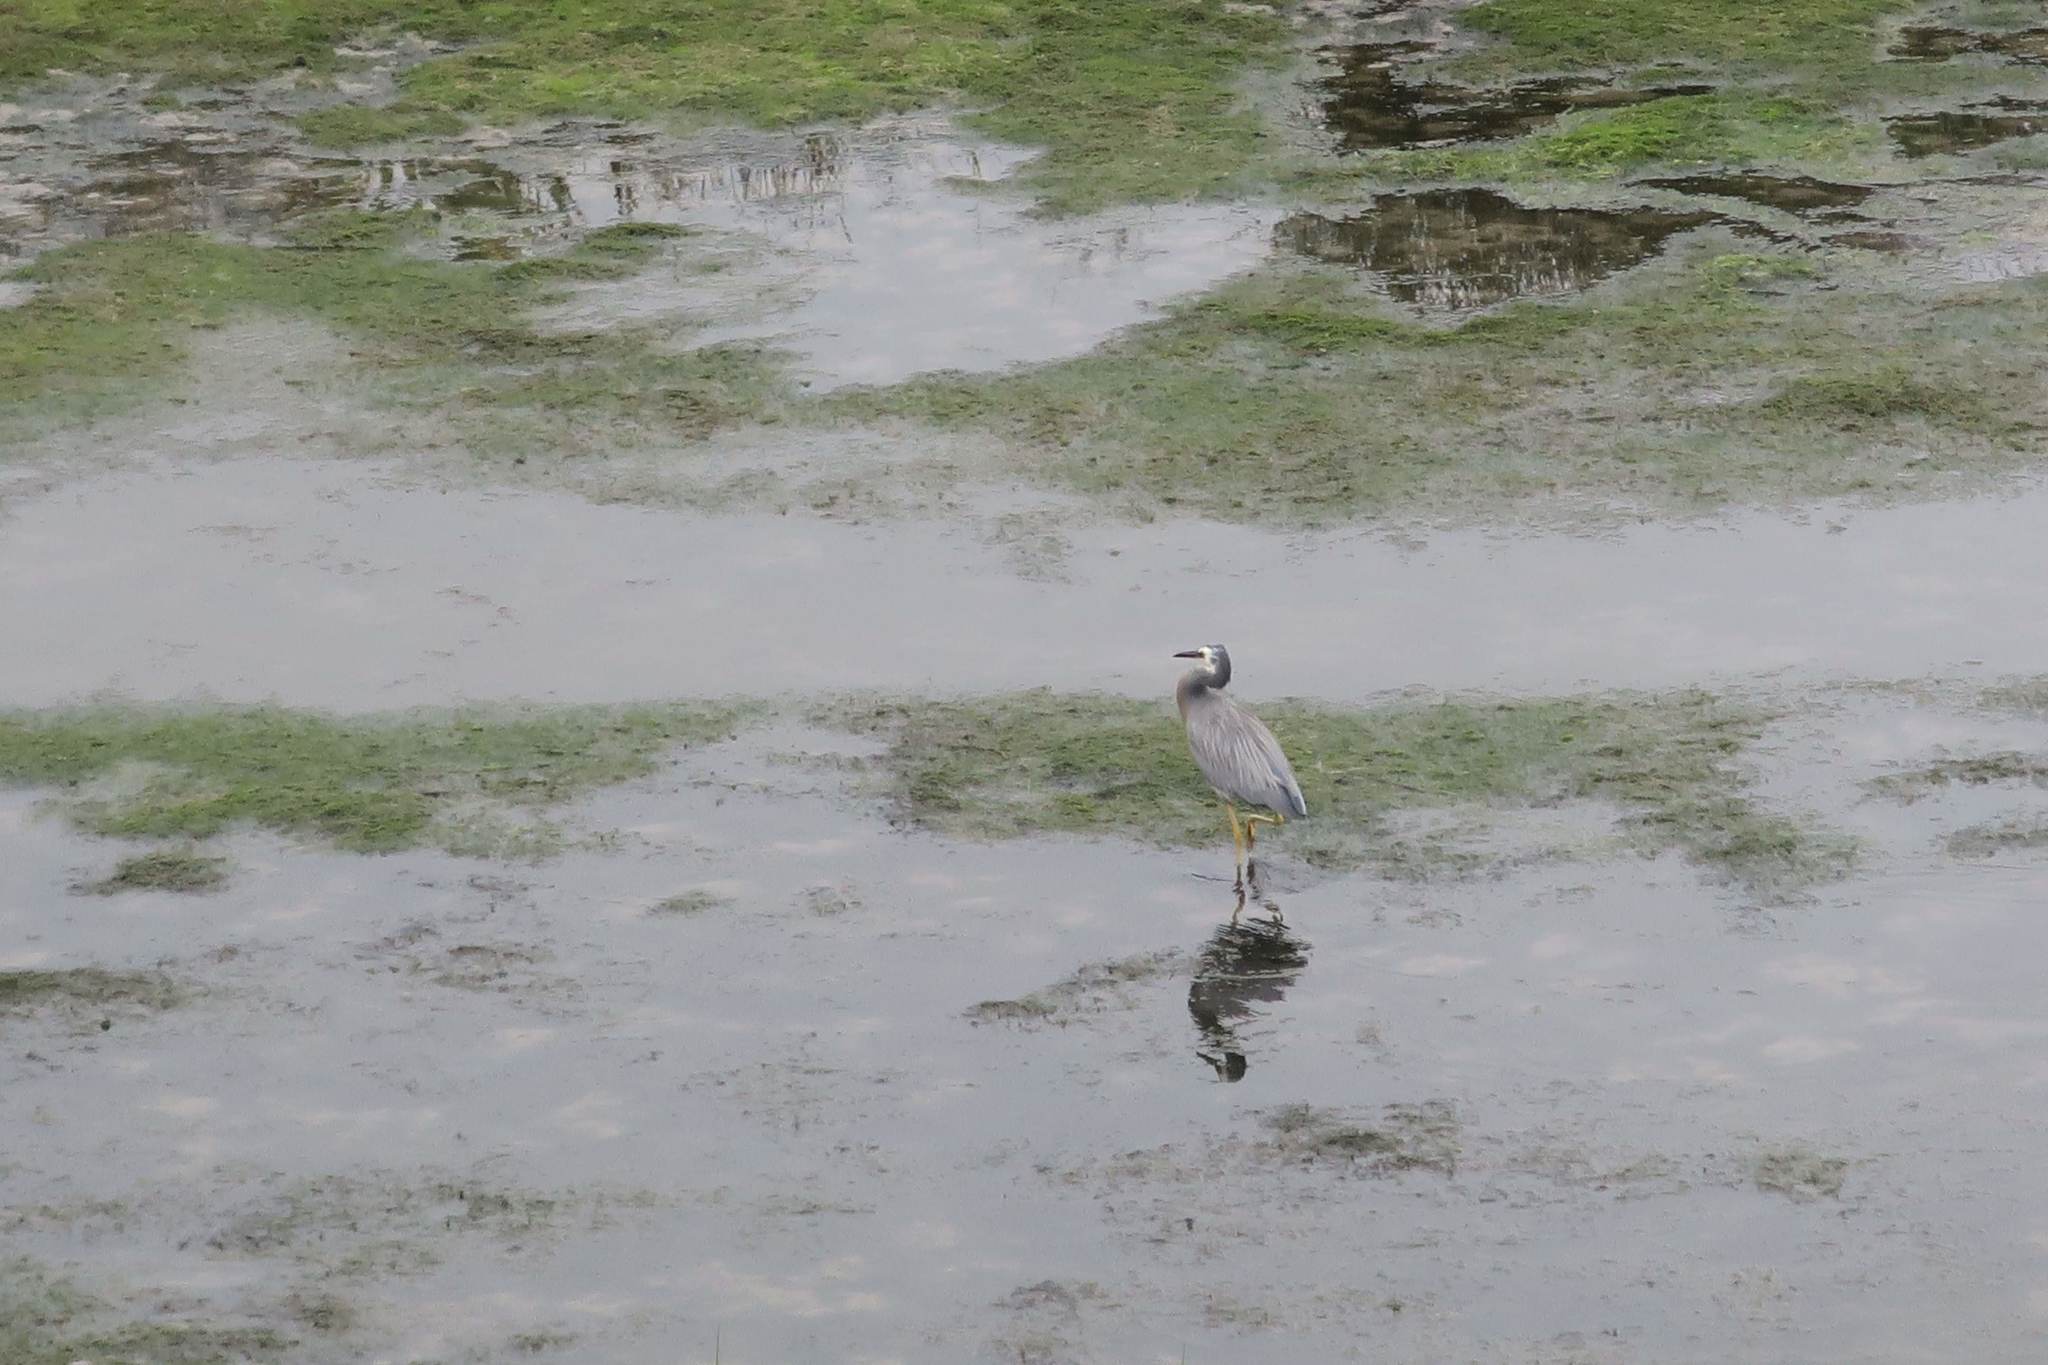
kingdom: Animalia
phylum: Chordata
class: Aves
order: Pelecaniformes
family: Ardeidae
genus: Egretta
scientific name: Egretta novaehollandiae
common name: White-faced heron
